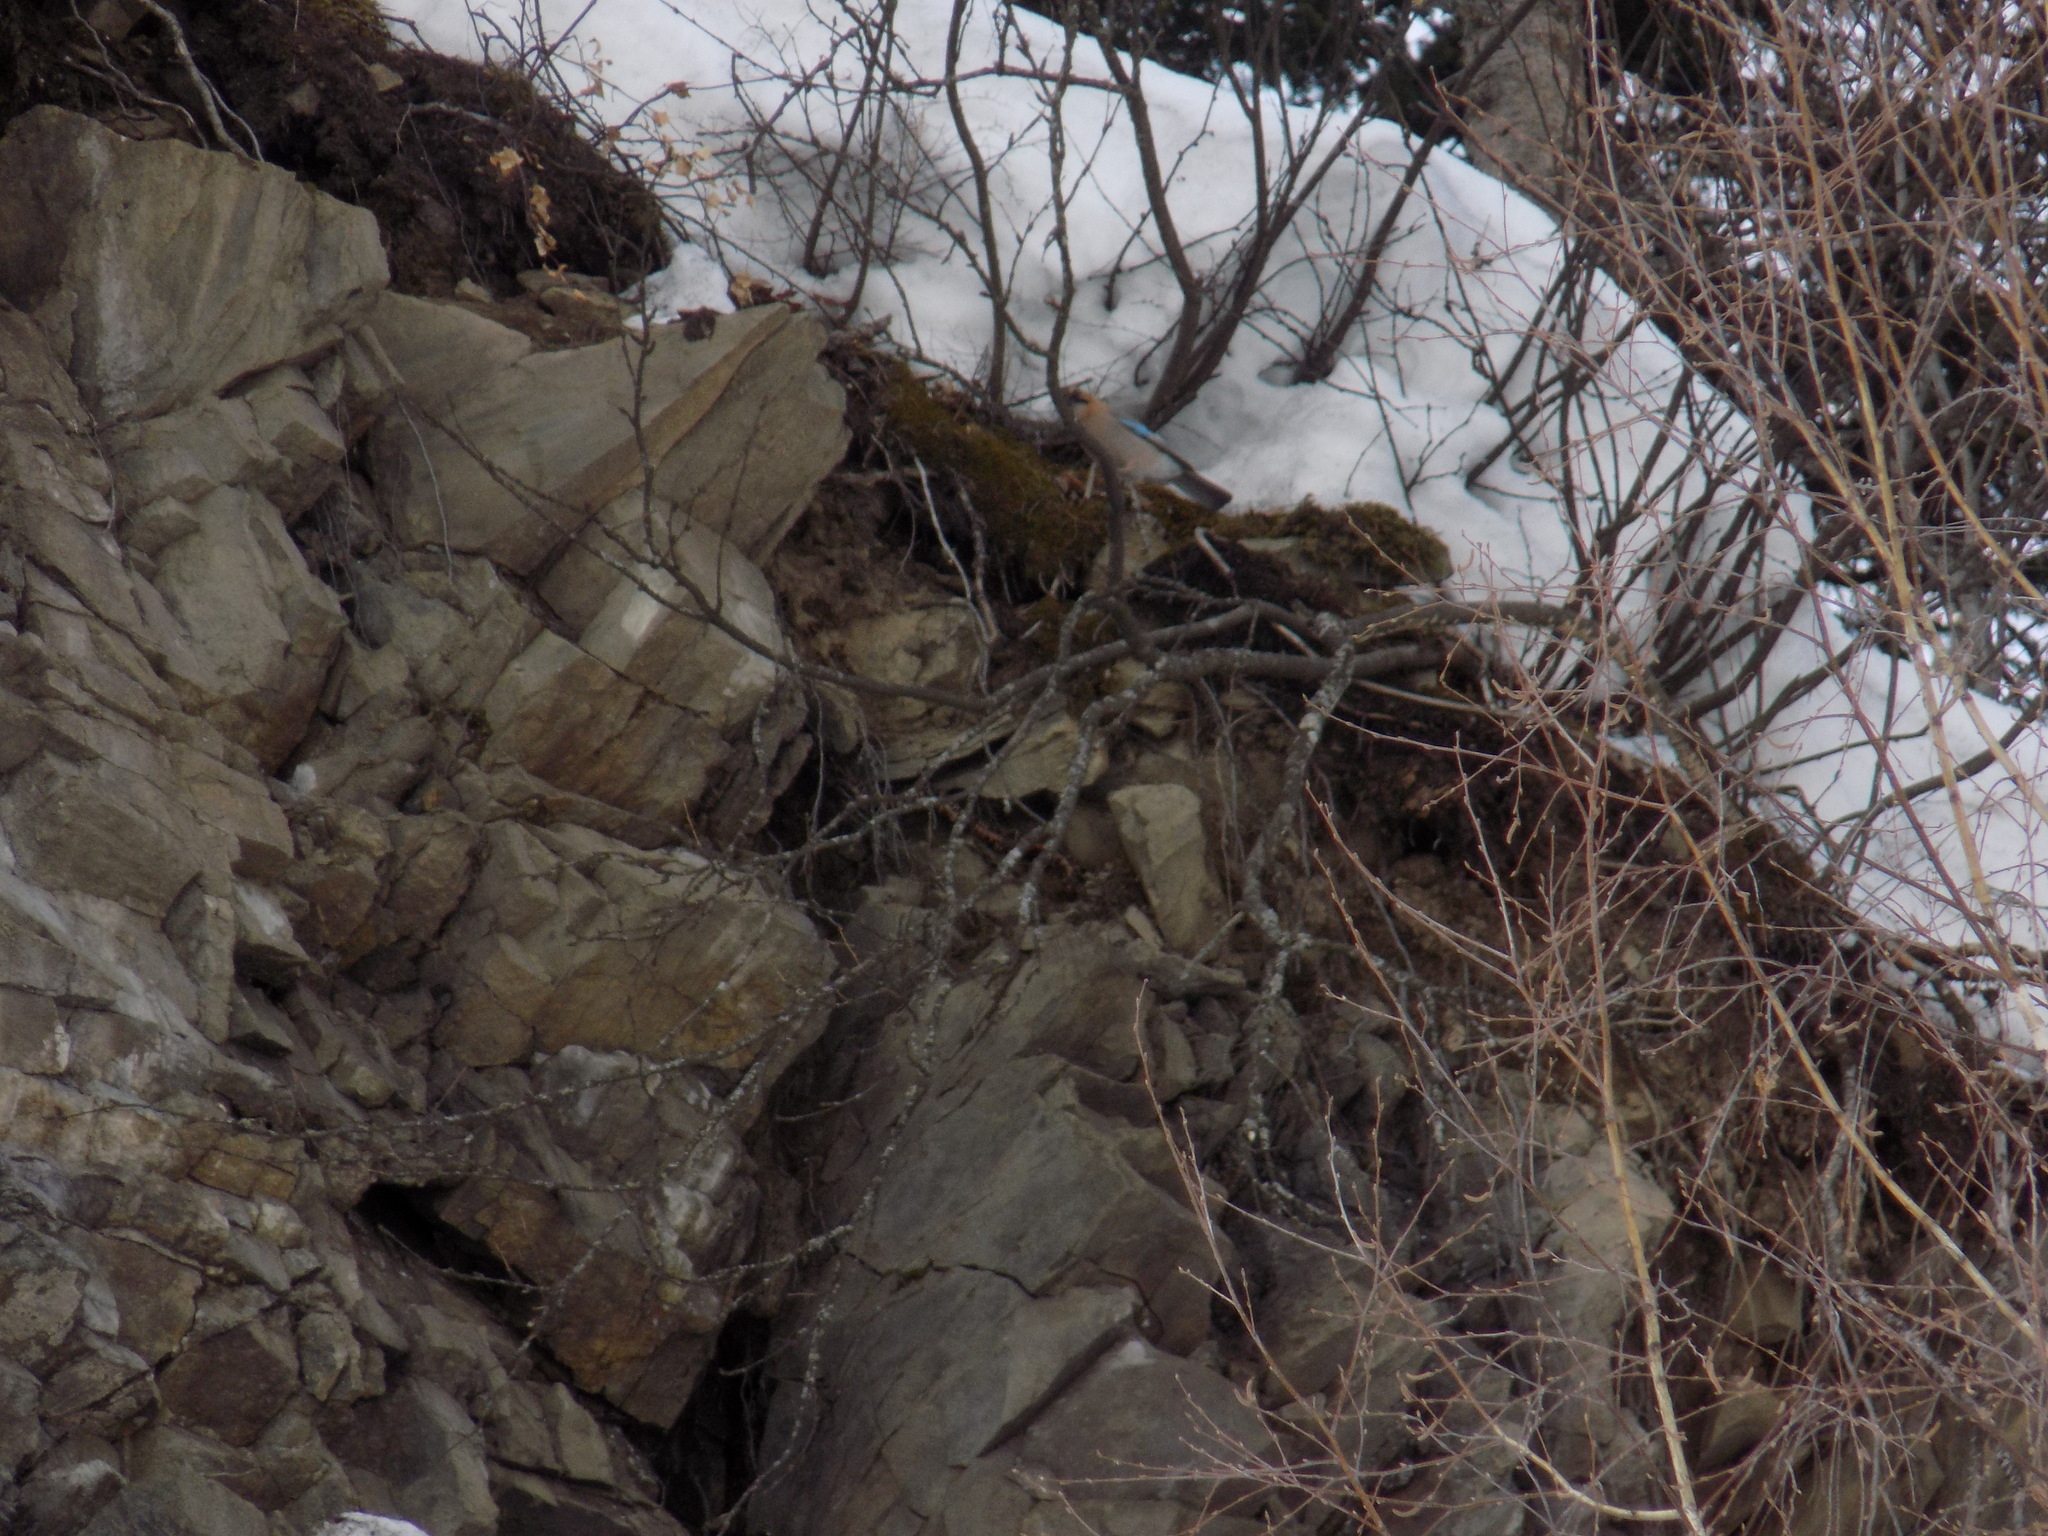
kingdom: Animalia
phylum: Chordata
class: Aves
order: Passeriformes
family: Corvidae
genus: Garrulus
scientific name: Garrulus glandarius
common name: Eurasian jay
